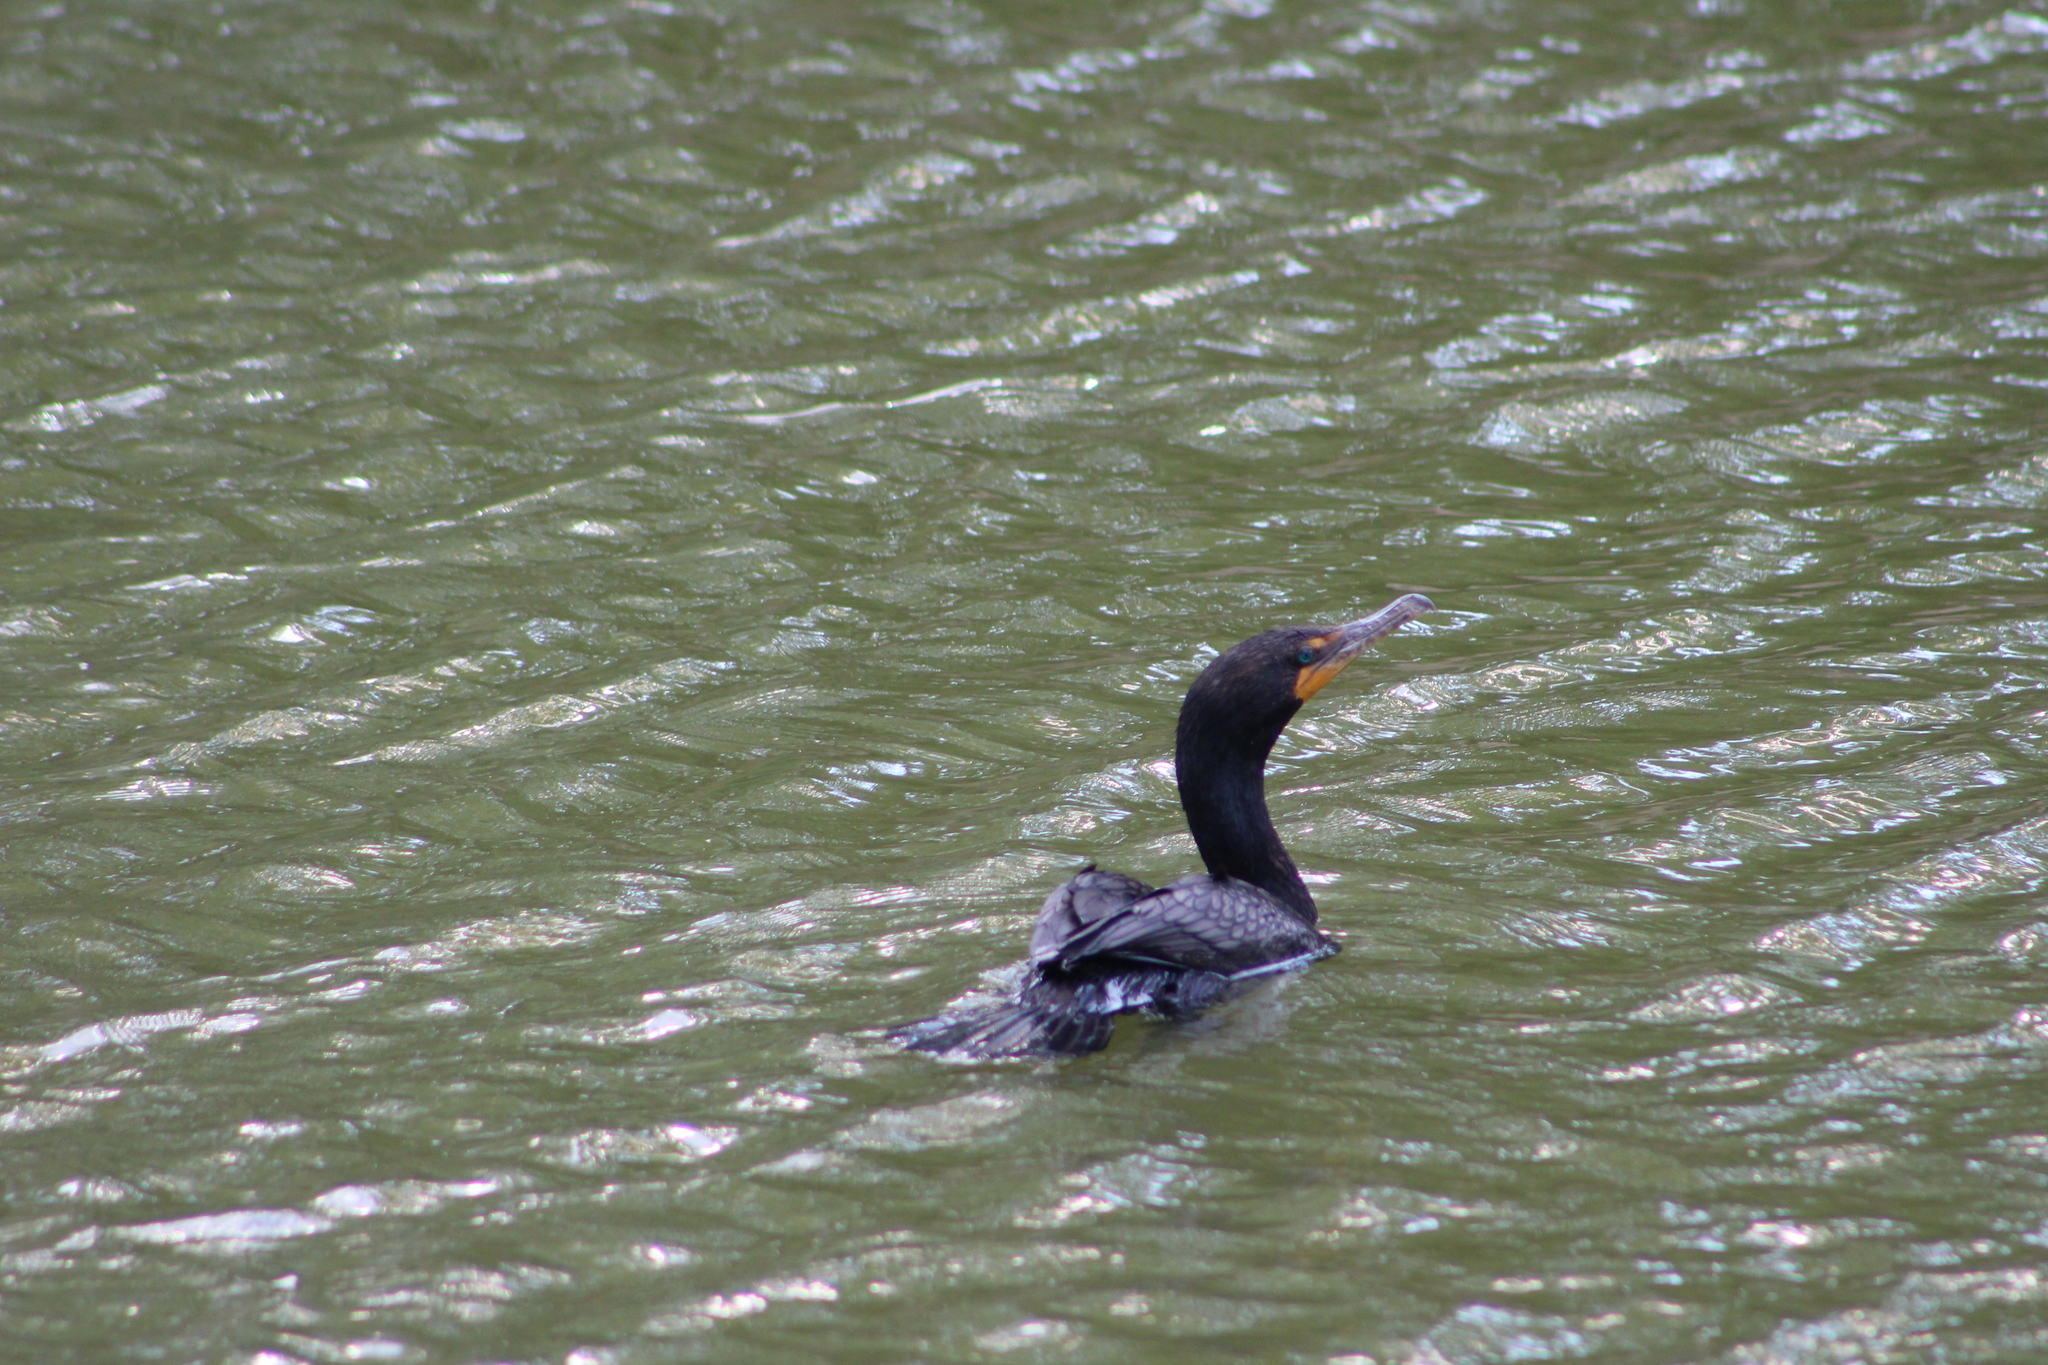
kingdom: Animalia
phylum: Chordata
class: Aves
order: Suliformes
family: Phalacrocoracidae
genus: Phalacrocorax
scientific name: Phalacrocorax auritus
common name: Double-crested cormorant
